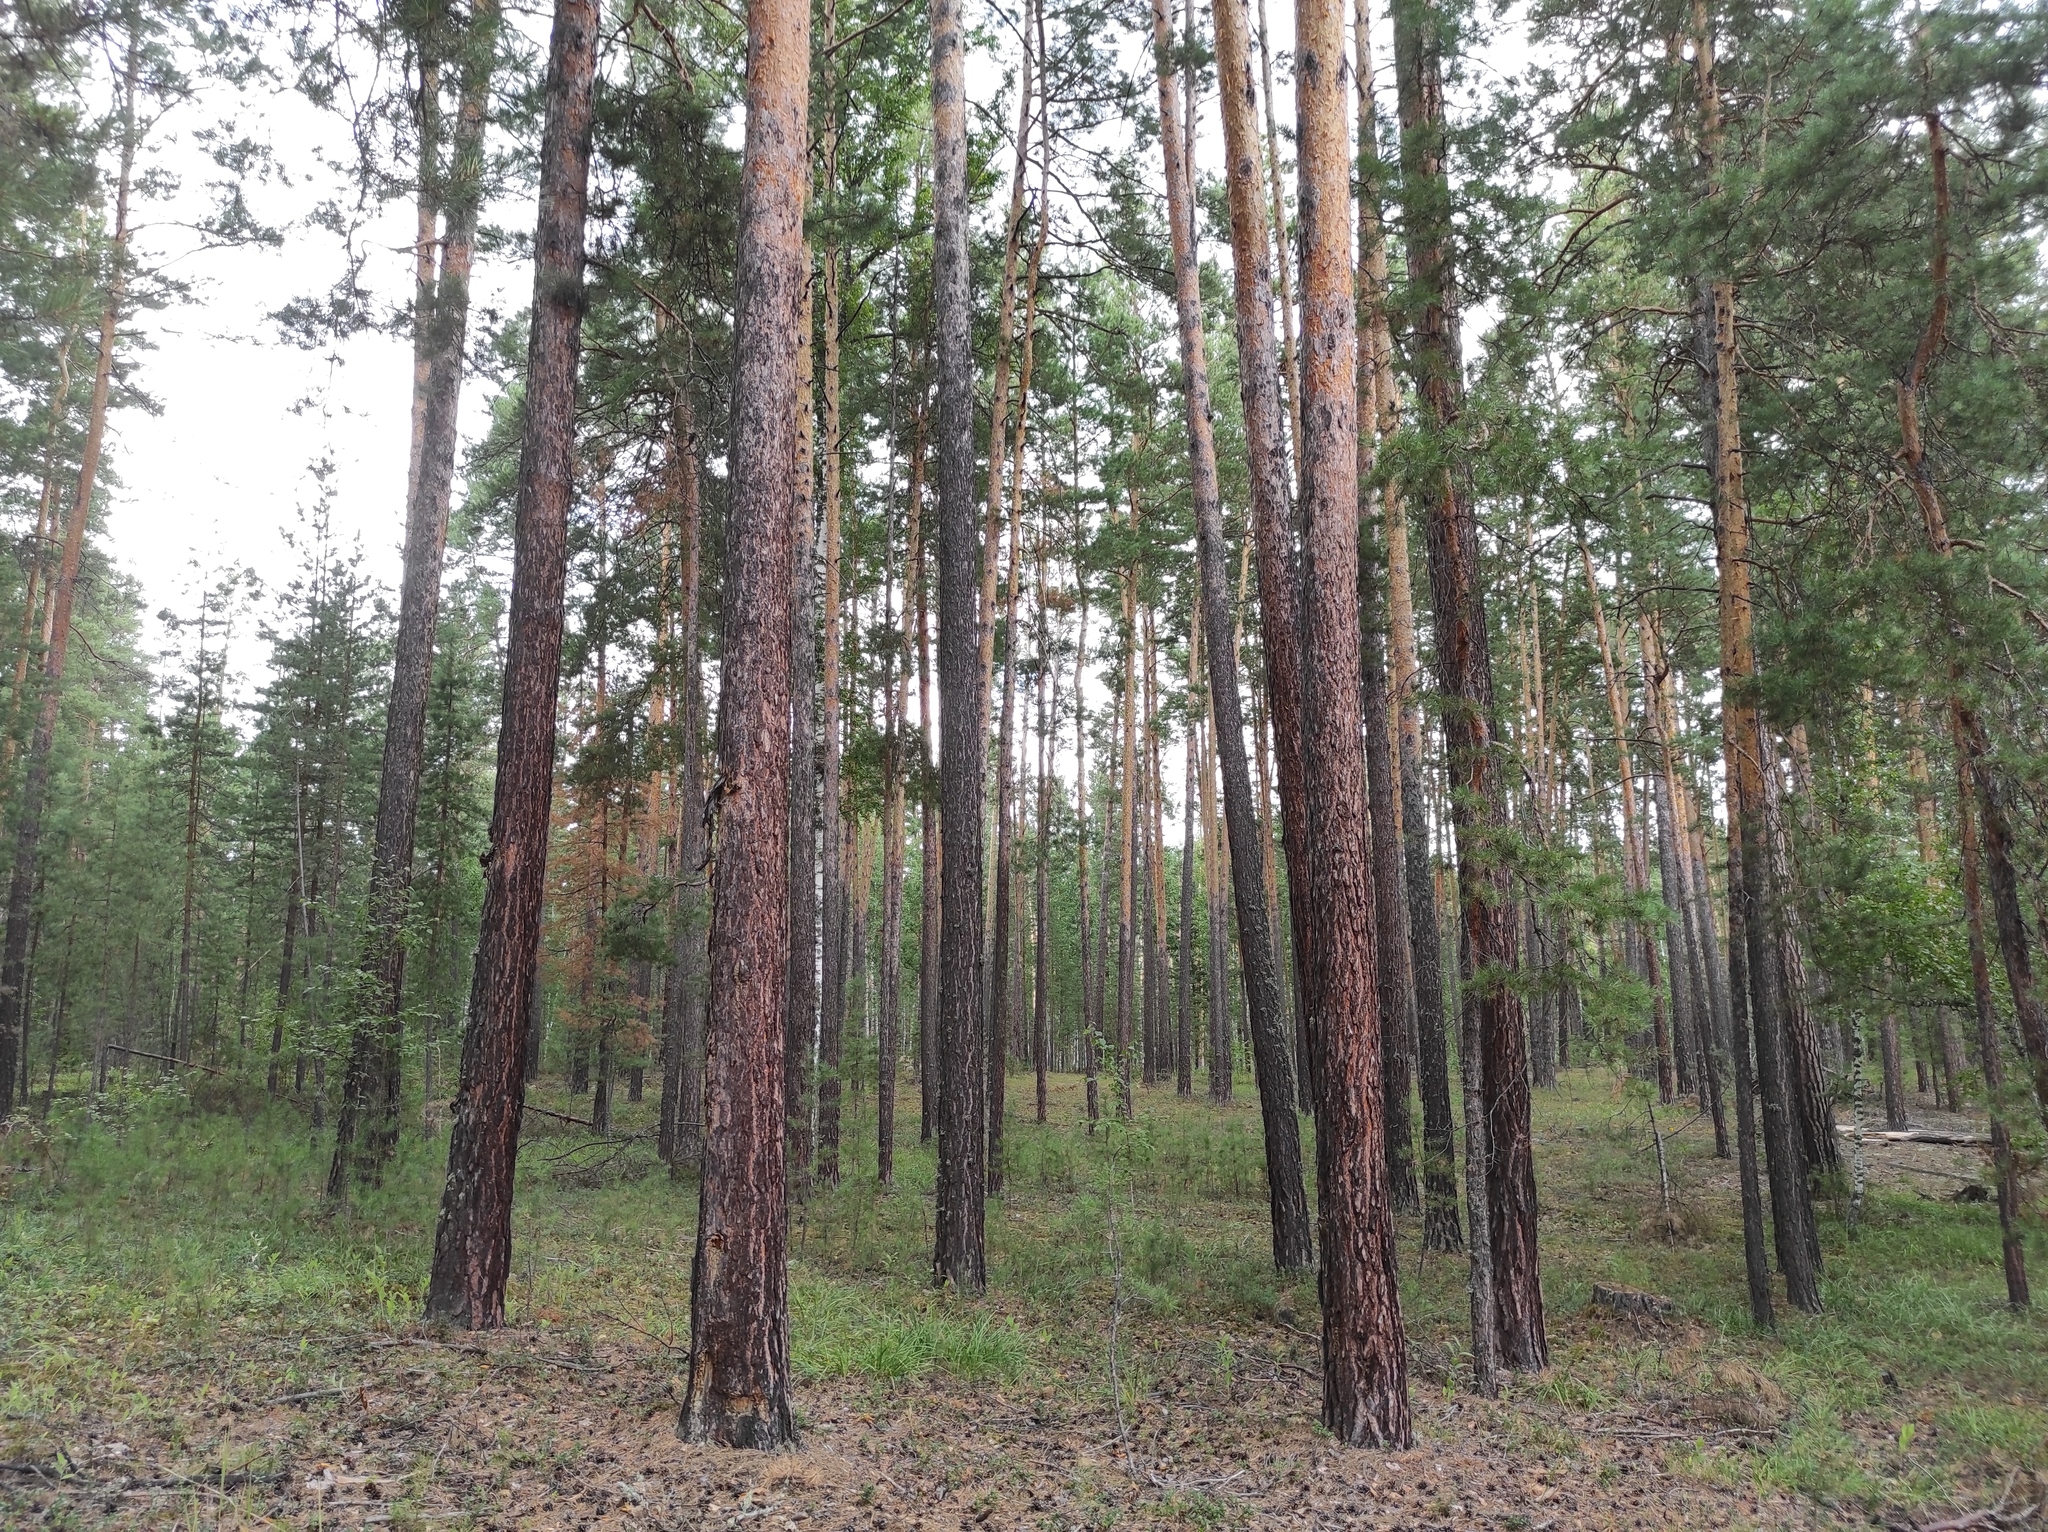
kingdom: Plantae
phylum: Tracheophyta
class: Pinopsida
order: Pinales
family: Pinaceae
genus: Pinus
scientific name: Pinus sylvestris
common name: Scots pine
